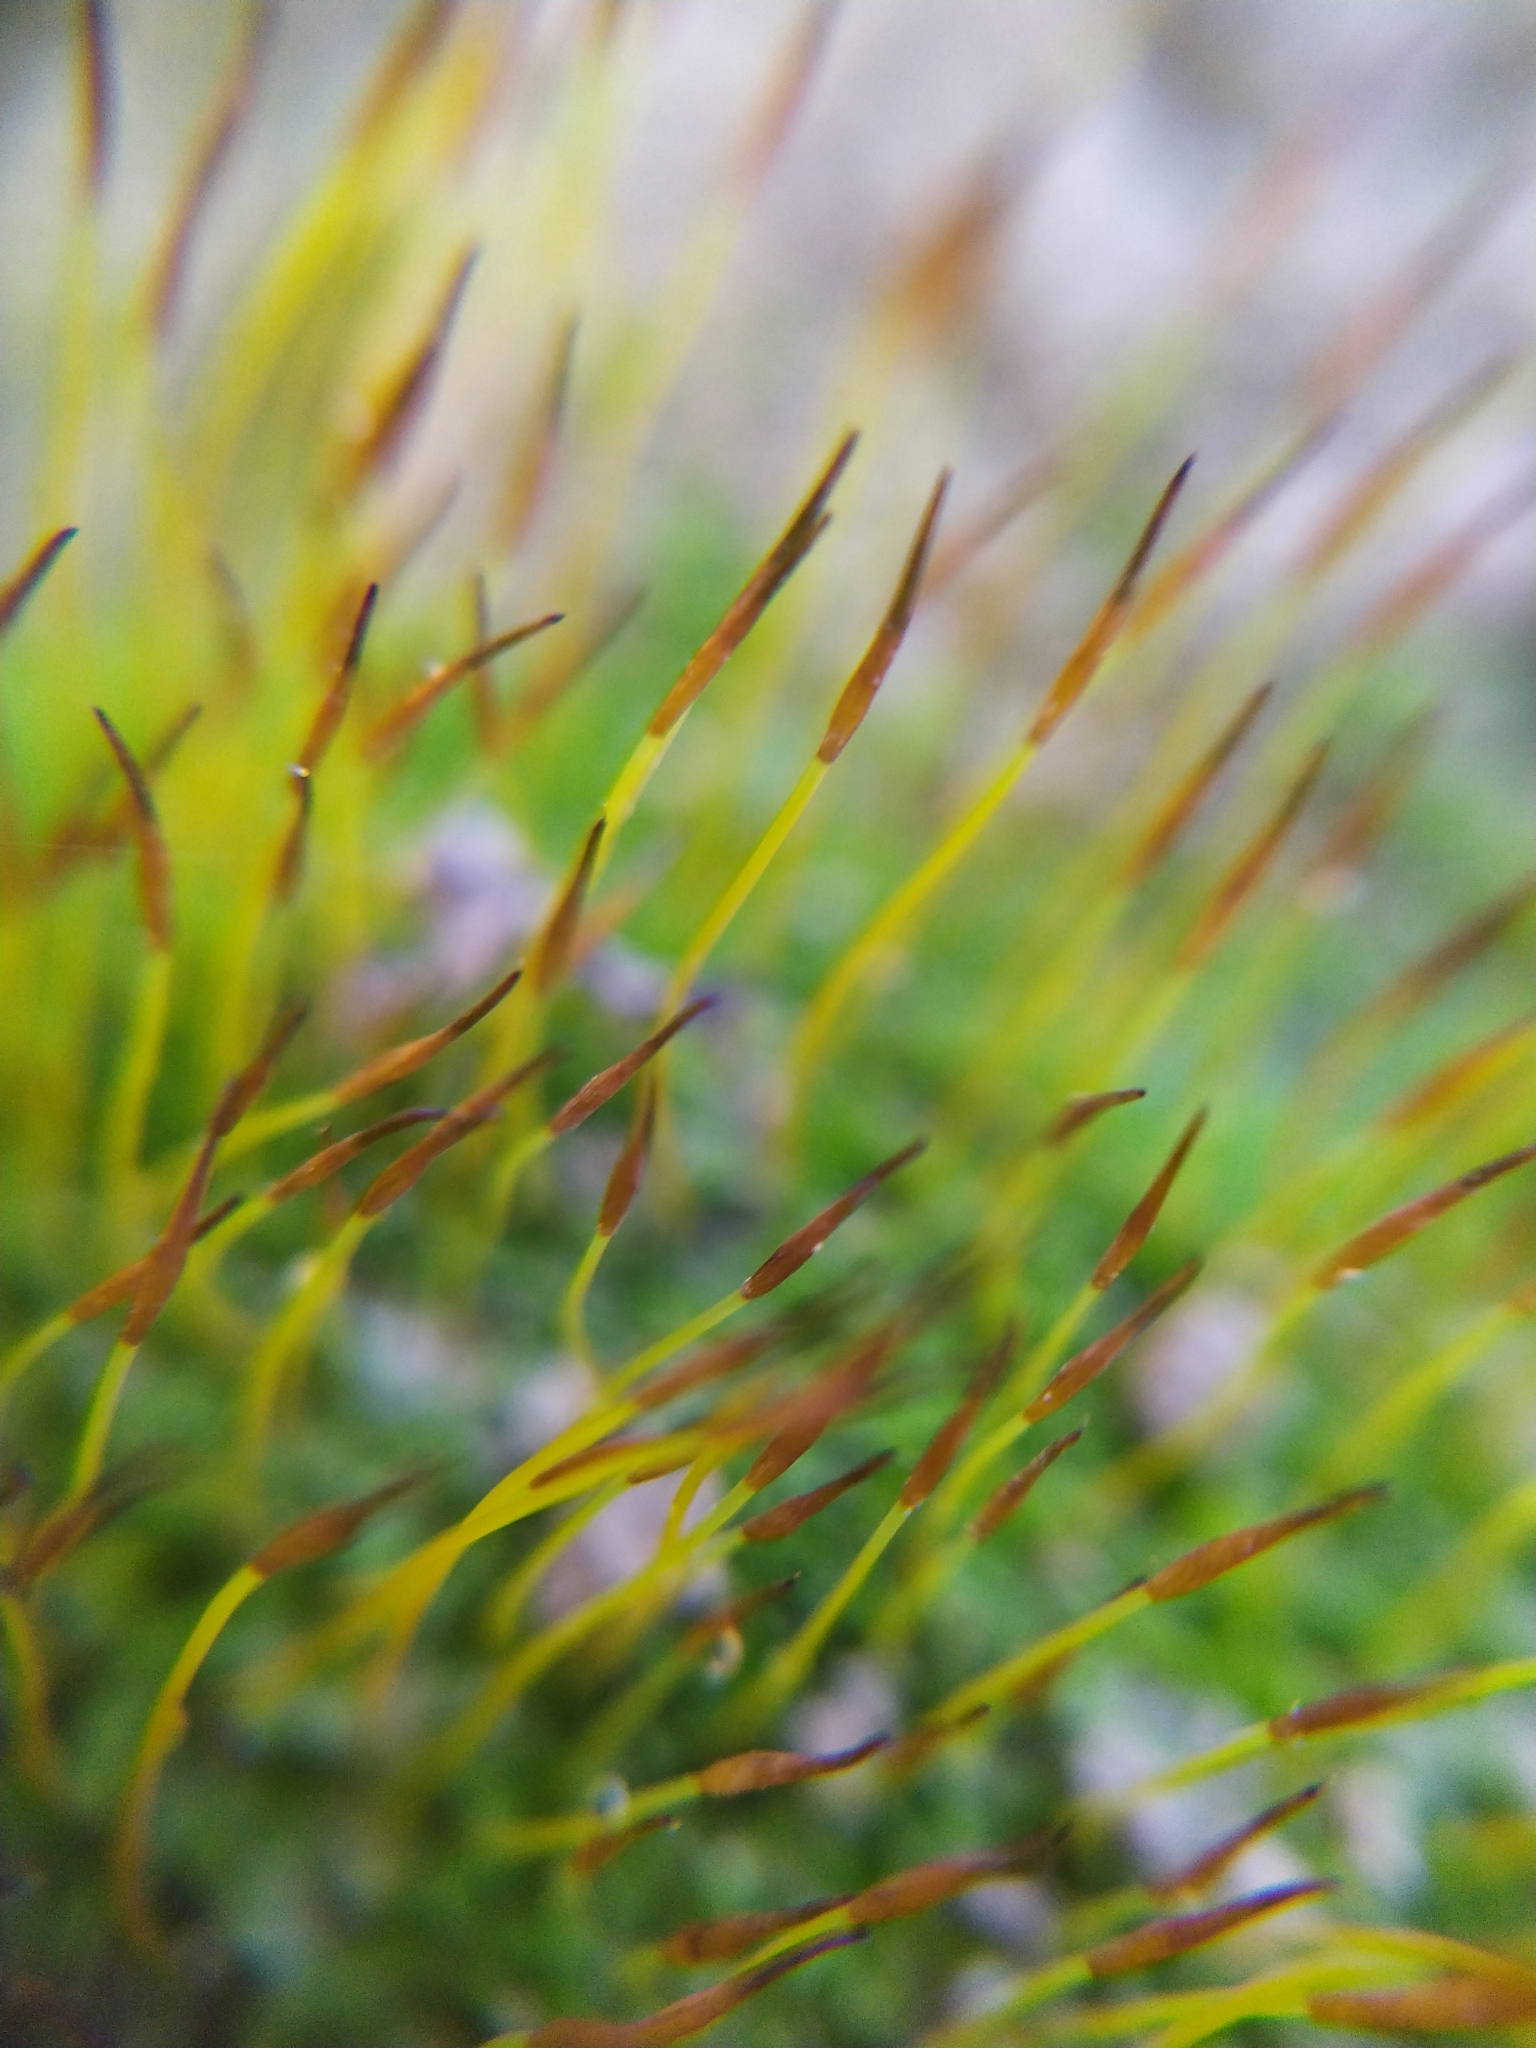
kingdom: Plantae
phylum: Bryophyta
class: Bryopsida
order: Pottiales
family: Pottiaceae
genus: Tortula
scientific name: Tortula muralis
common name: Wall screw-moss
